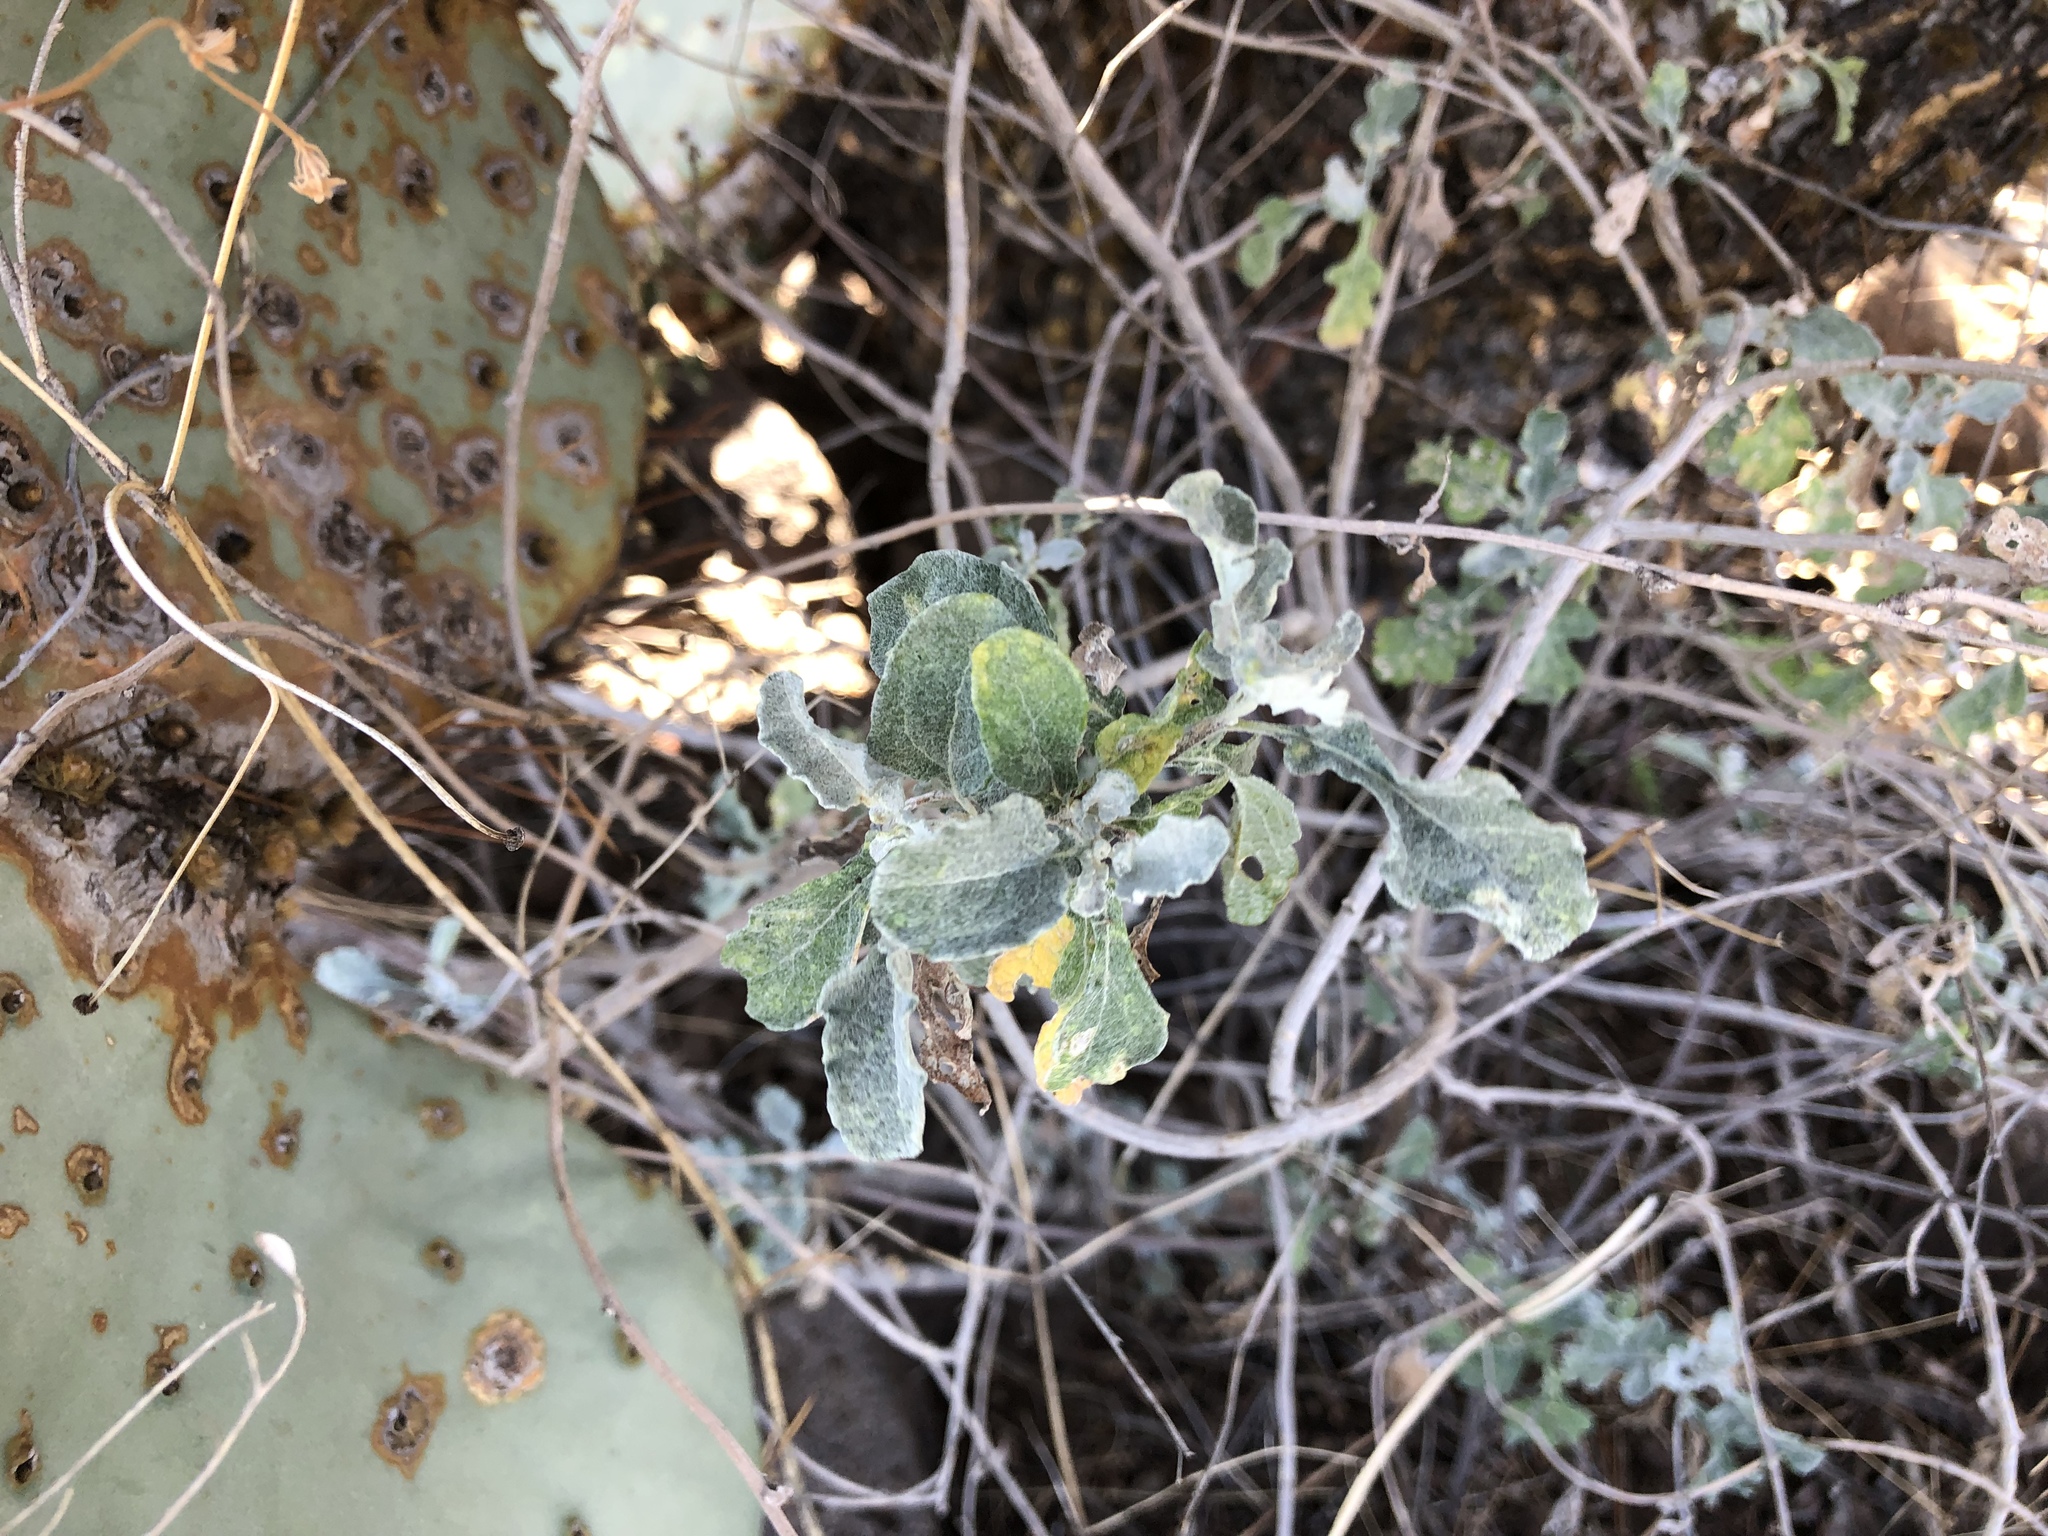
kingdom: Plantae
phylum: Tracheophyta
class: Magnoliopsida
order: Asterales
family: Asteraceae
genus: Parthenium
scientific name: Parthenium incanum
